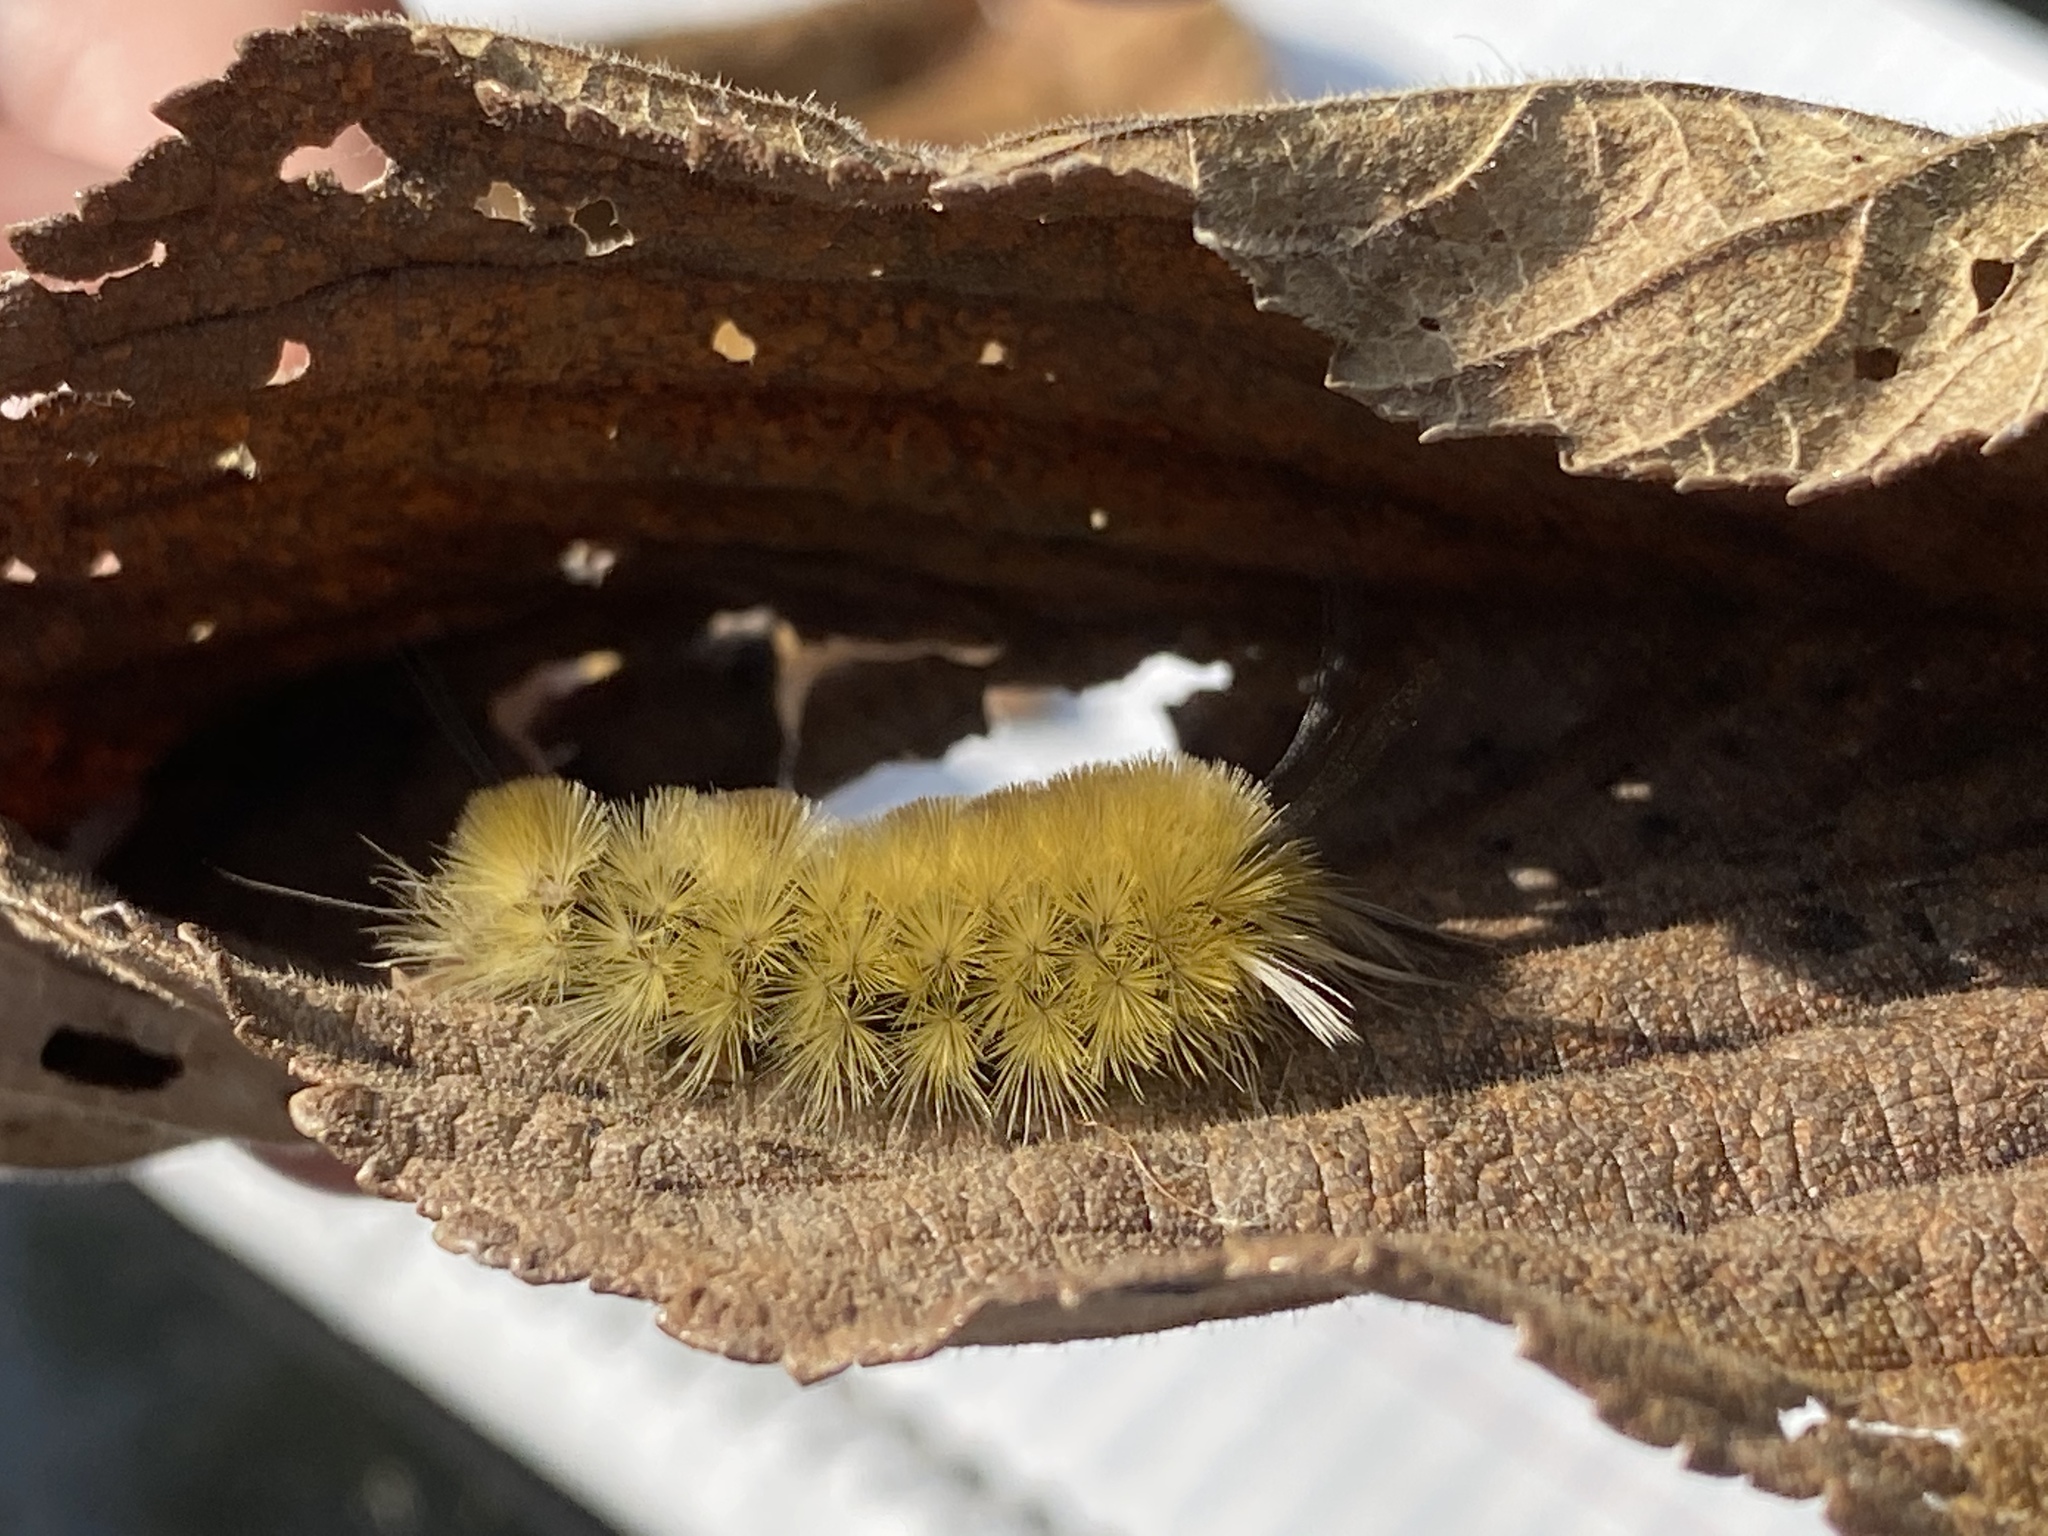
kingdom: Animalia
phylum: Arthropoda
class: Insecta
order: Lepidoptera
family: Erebidae
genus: Halysidota
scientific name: Halysidota tessellaris
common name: Banded tussock moth
